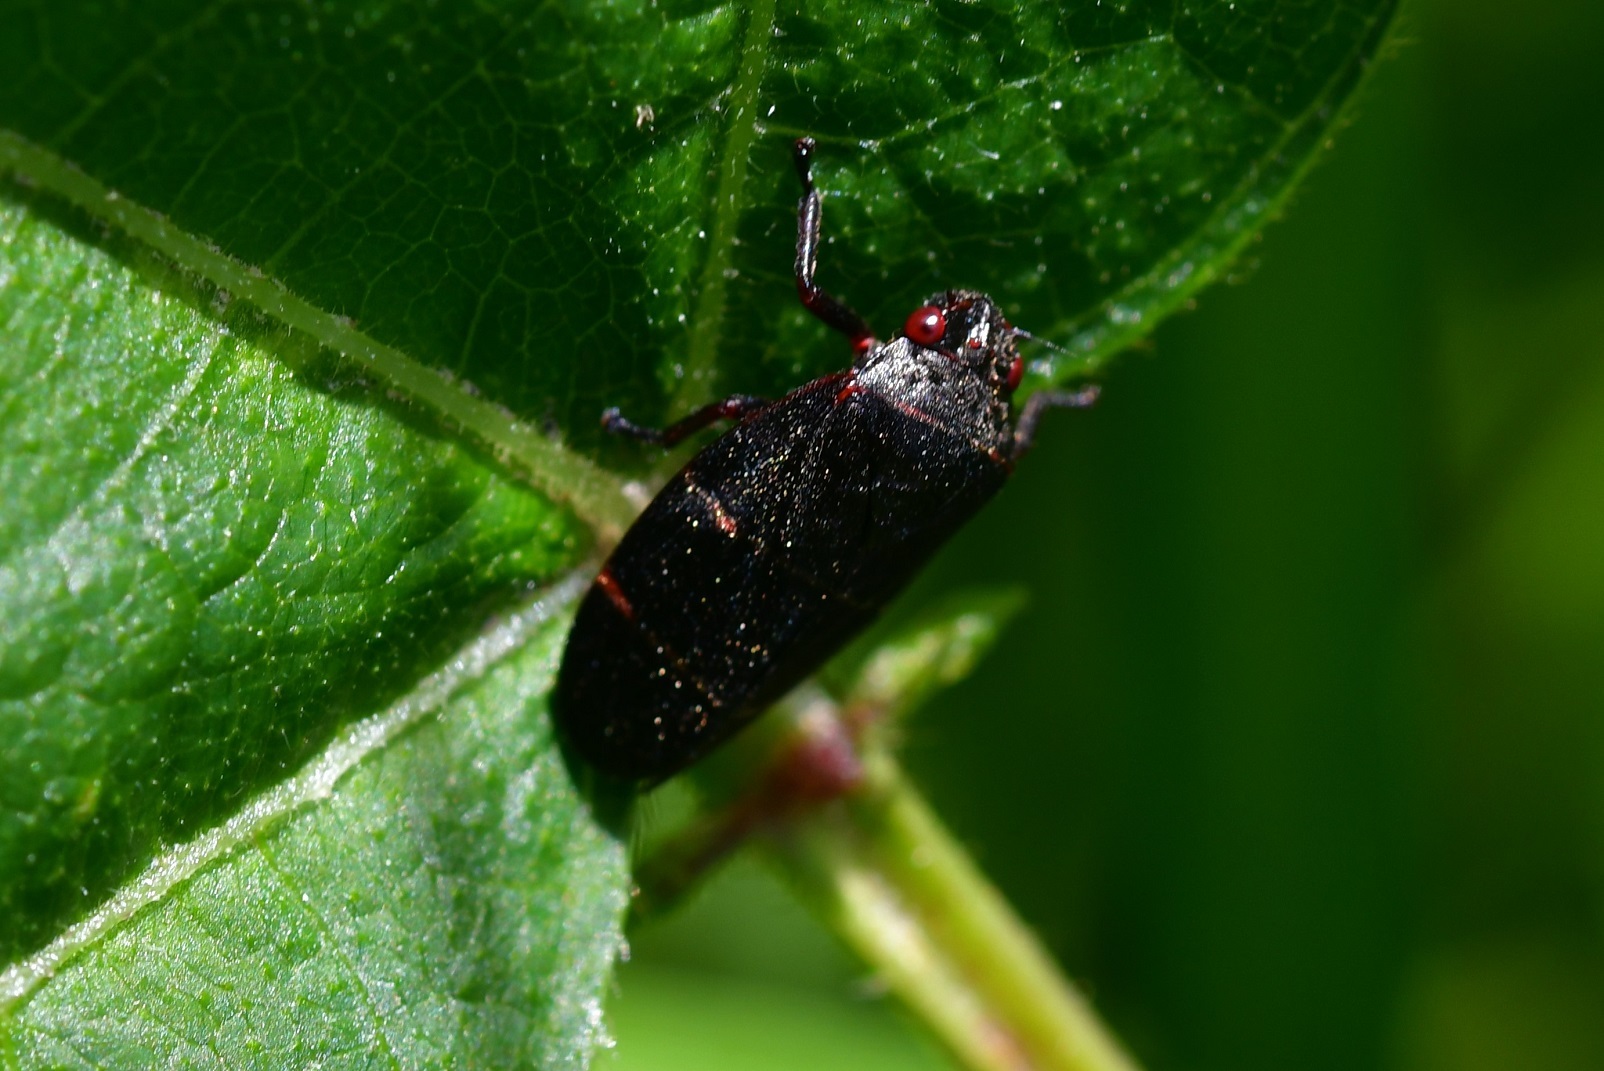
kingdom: Animalia
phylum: Arthropoda
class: Insecta
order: Hemiptera
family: Cercopidae
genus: Prosapia
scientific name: Prosapia
